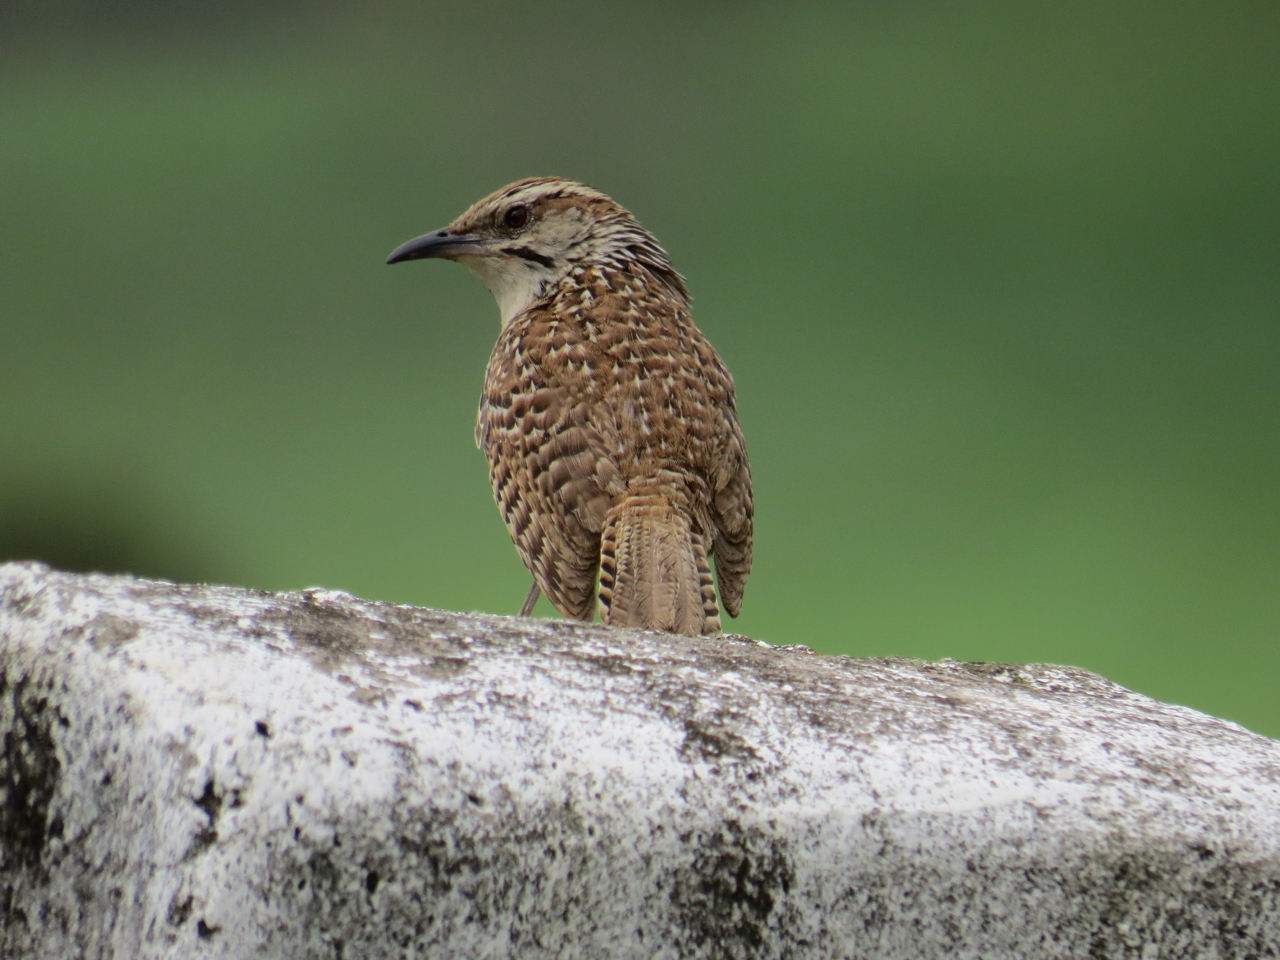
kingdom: Animalia
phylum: Chordata
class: Aves
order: Passeriformes
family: Troglodytidae
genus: Campylorhynchus
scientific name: Campylorhynchus gularis
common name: Spotted wren
